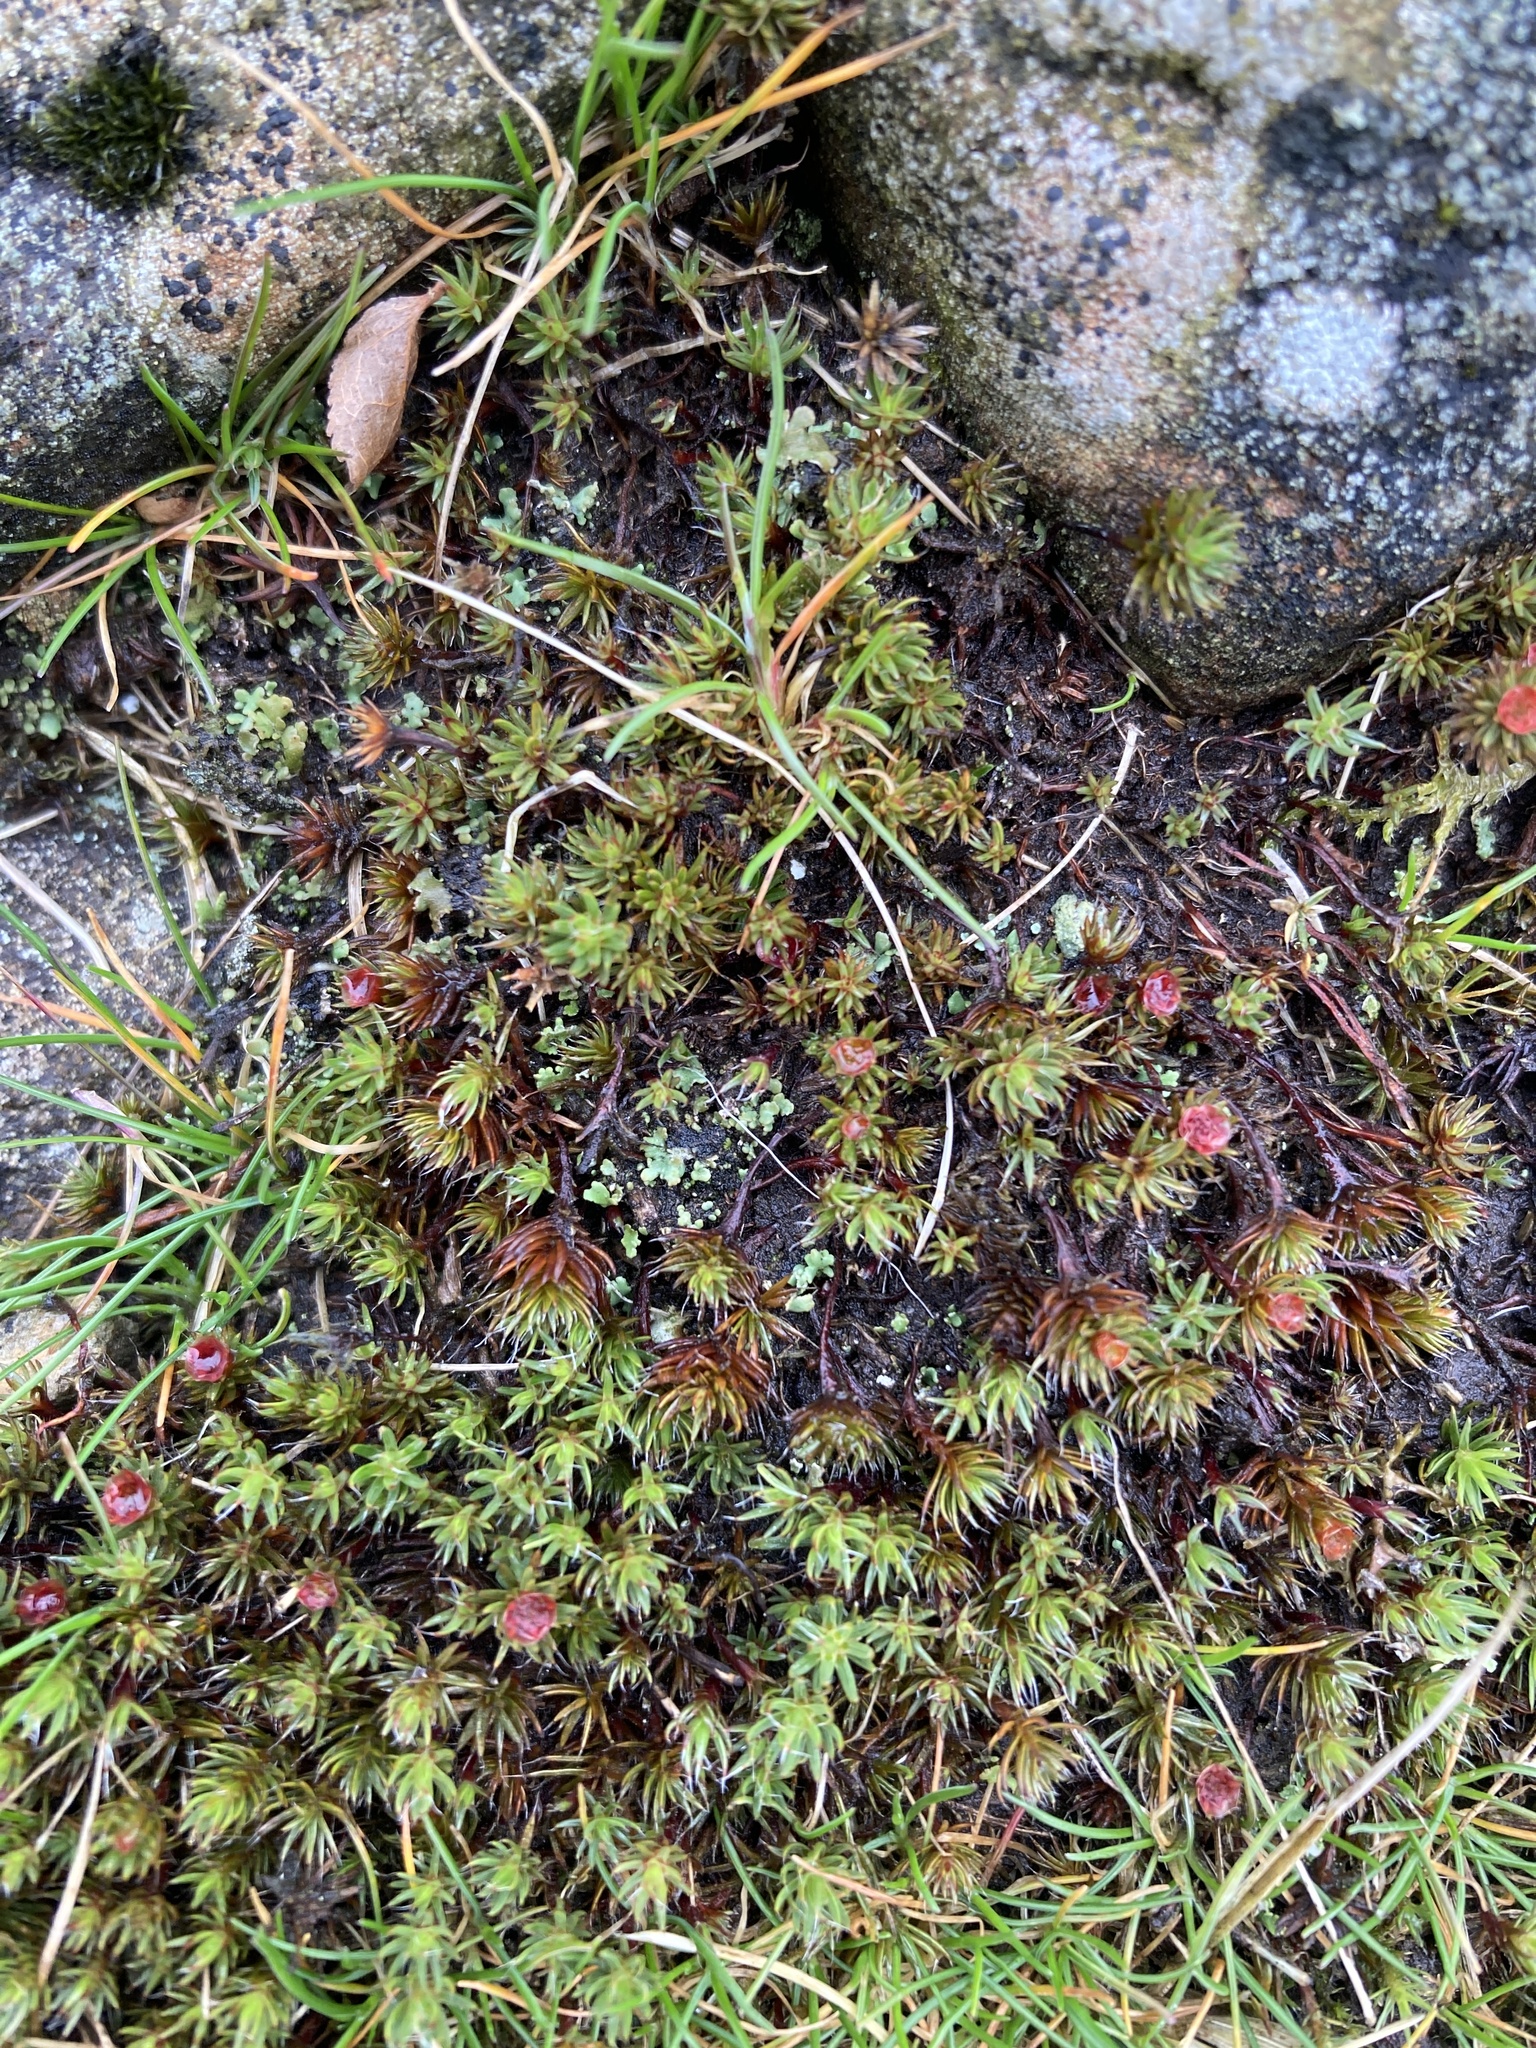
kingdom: Plantae
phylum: Bryophyta
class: Polytrichopsida
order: Polytrichales
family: Polytrichaceae
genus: Polytrichum
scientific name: Polytrichum piliferum
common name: Bristly haircap
